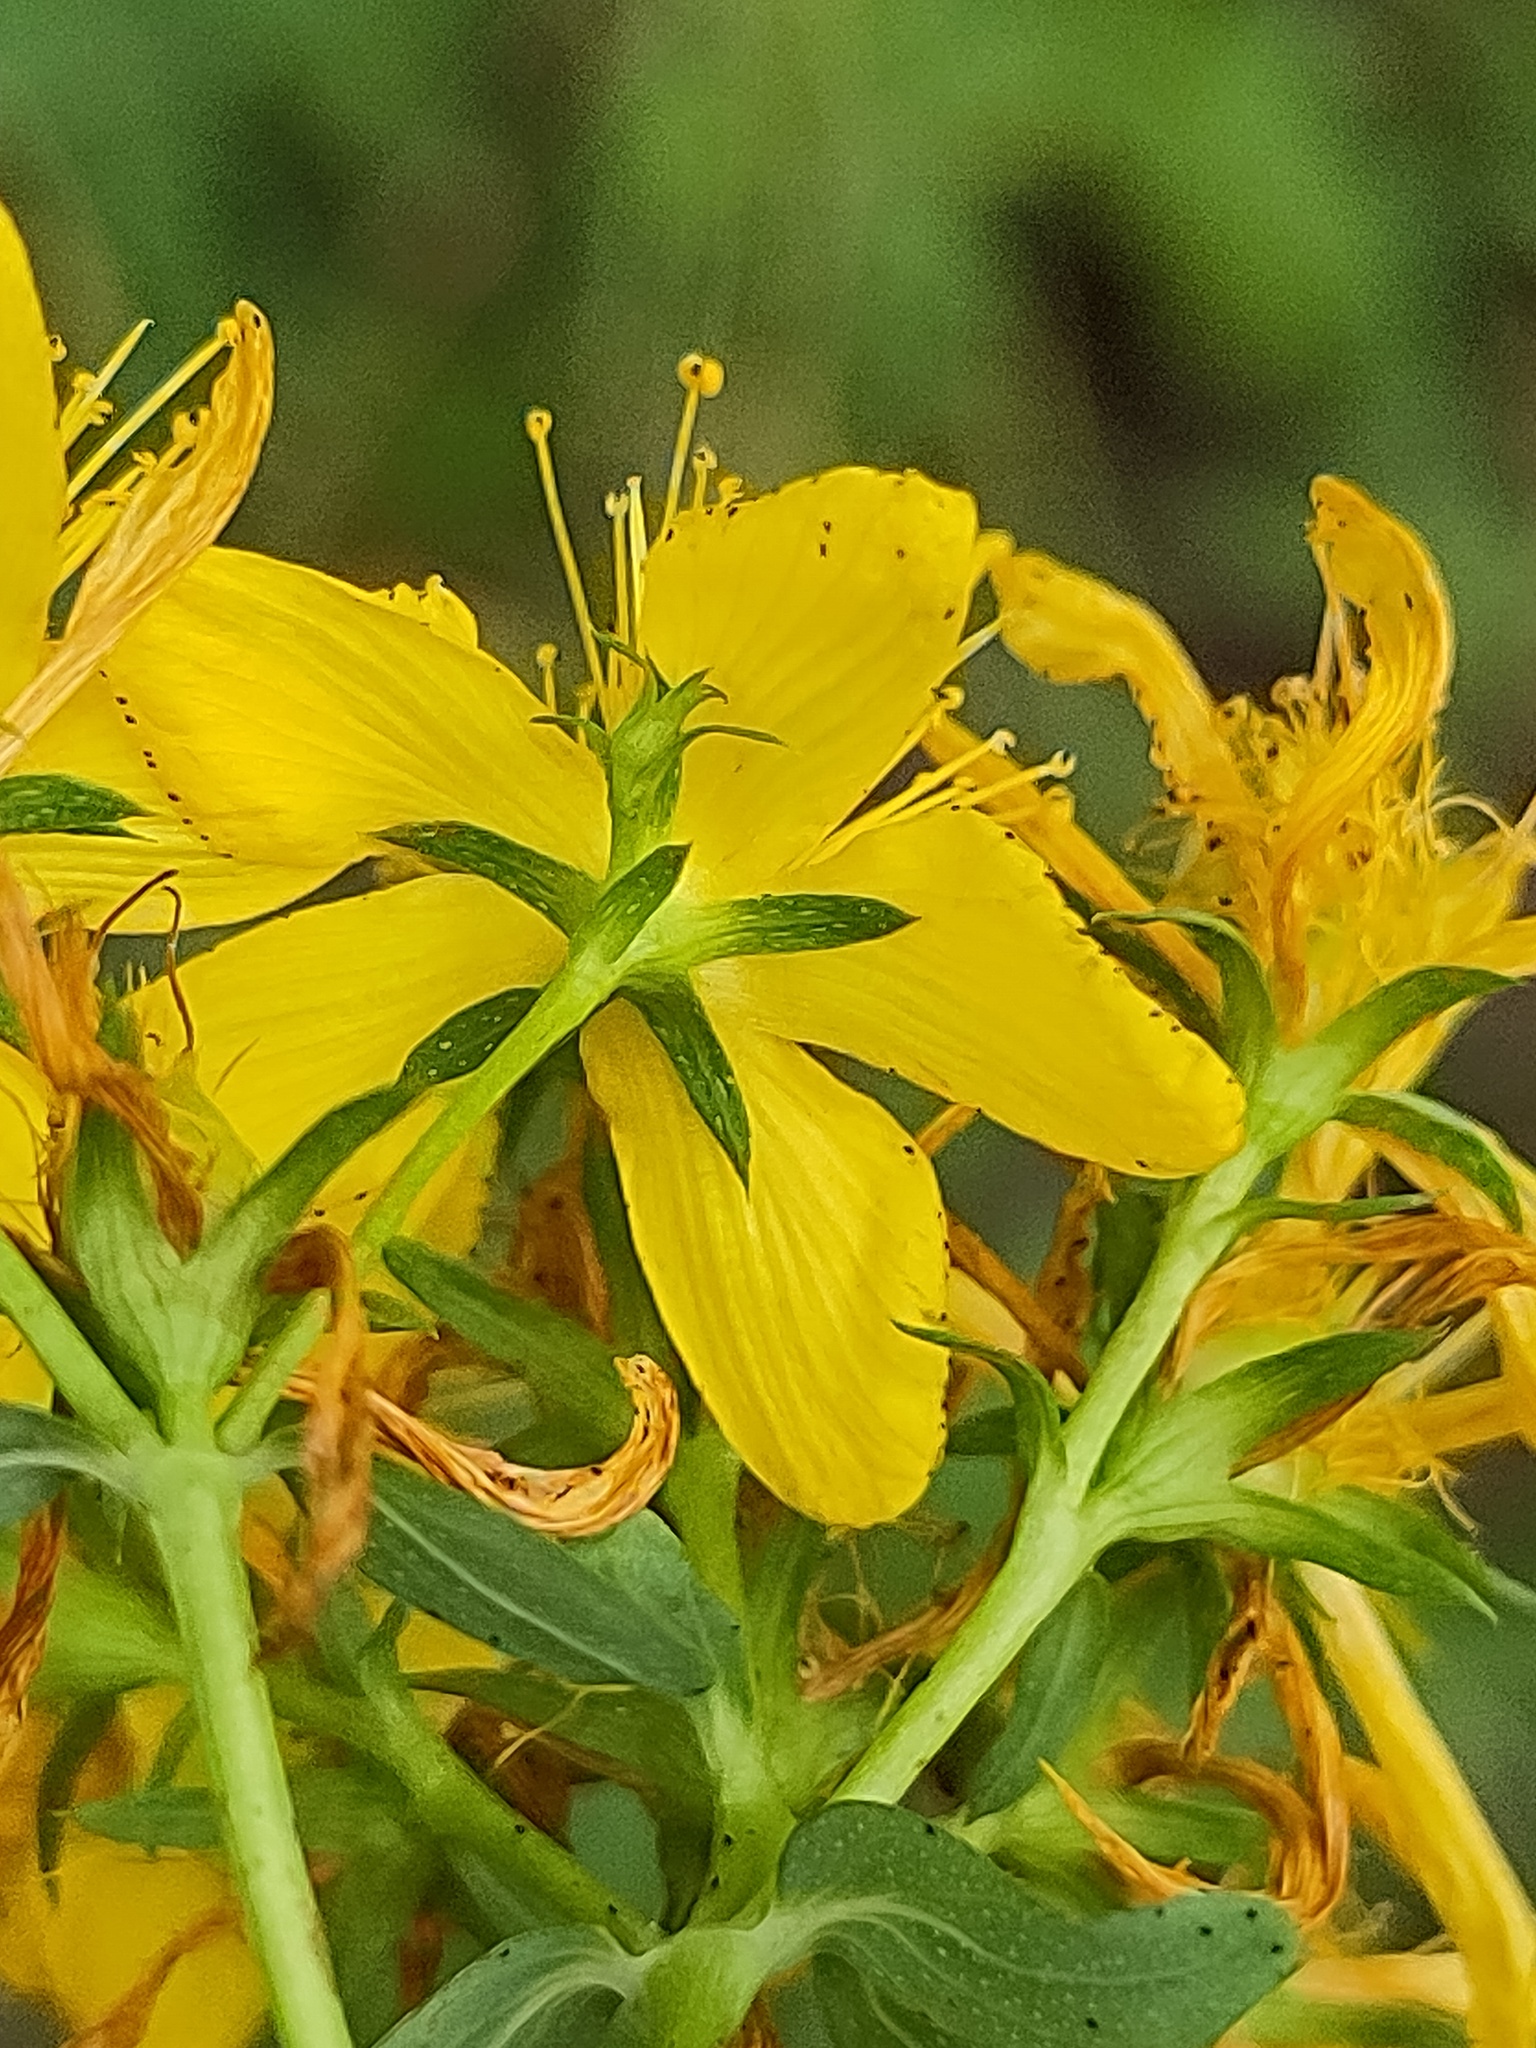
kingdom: Plantae
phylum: Tracheophyta
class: Magnoliopsida
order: Malpighiales
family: Hypericaceae
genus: Hypericum
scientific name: Hypericum perforatum
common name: Common st. johnswort
